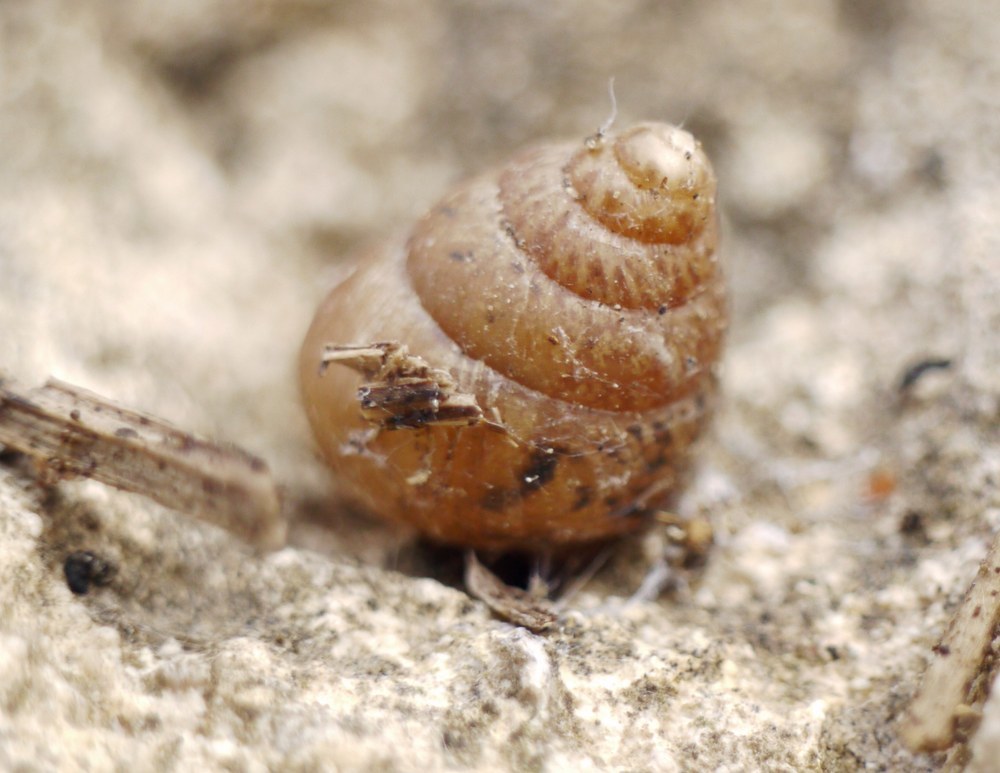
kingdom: Animalia
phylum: Mollusca
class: Gastropoda
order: Stylommatophora
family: Enidae
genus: Chondrula
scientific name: Chondrula tridens
